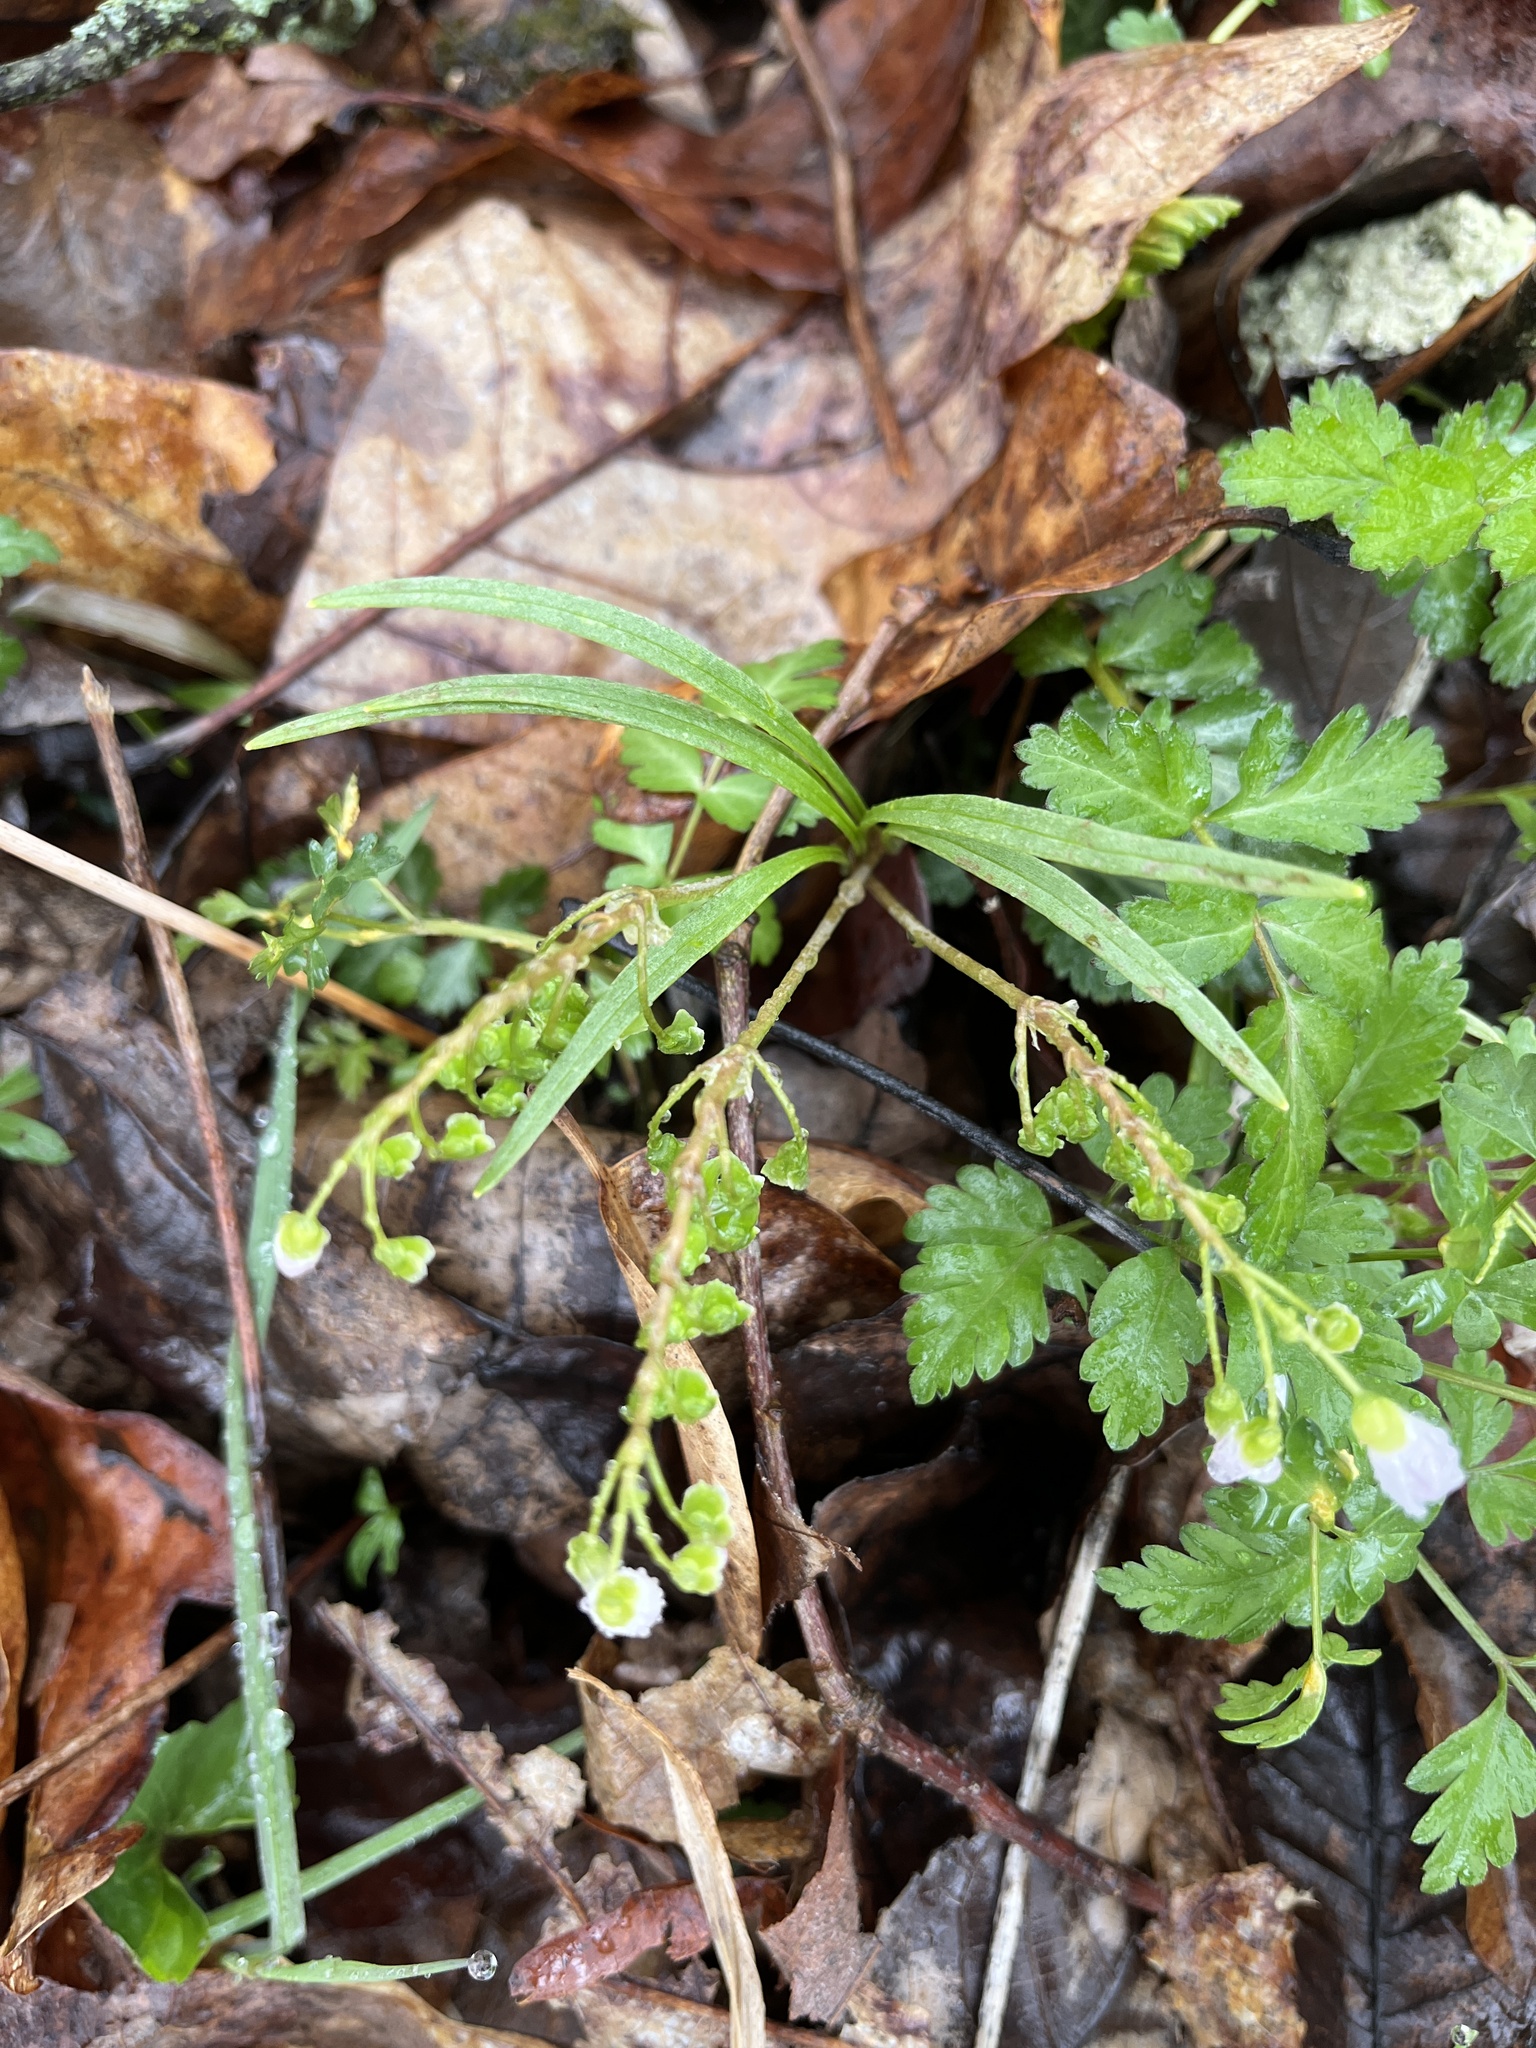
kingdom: Plantae
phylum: Tracheophyta
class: Magnoliopsida
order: Caryophyllales
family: Montiaceae
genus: Claytonia
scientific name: Claytonia virginica
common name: Virginia springbeauty
